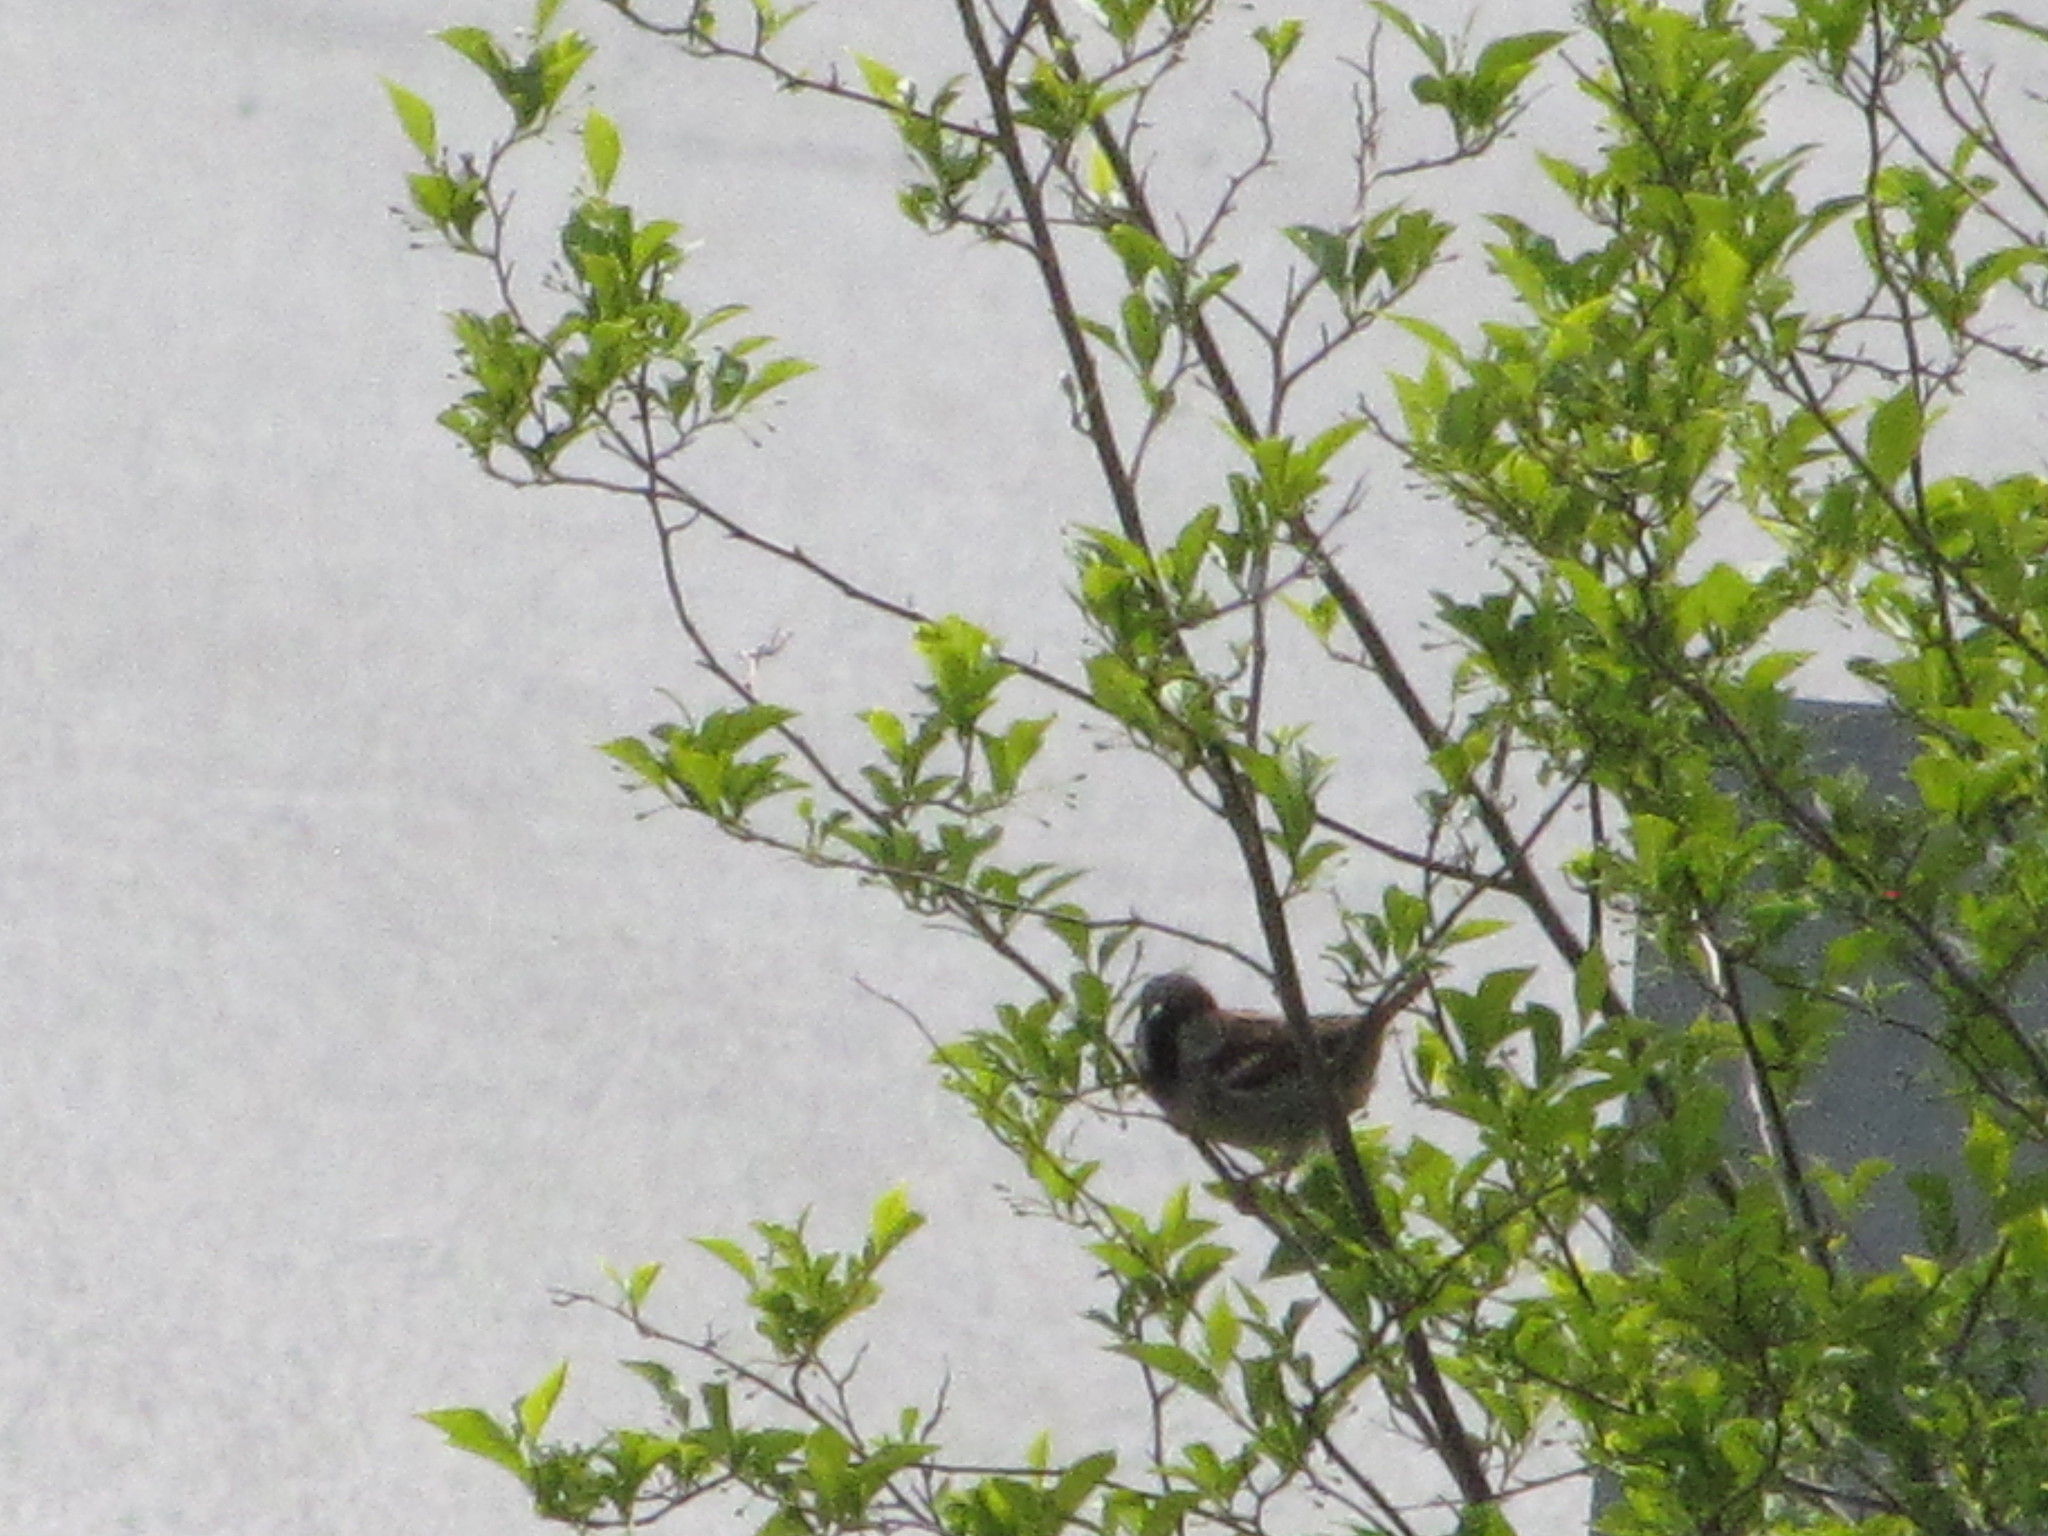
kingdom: Animalia
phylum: Chordata
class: Aves
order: Passeriformes
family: Passeridae
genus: Passer
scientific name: Passer domesticus
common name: House sparrow
